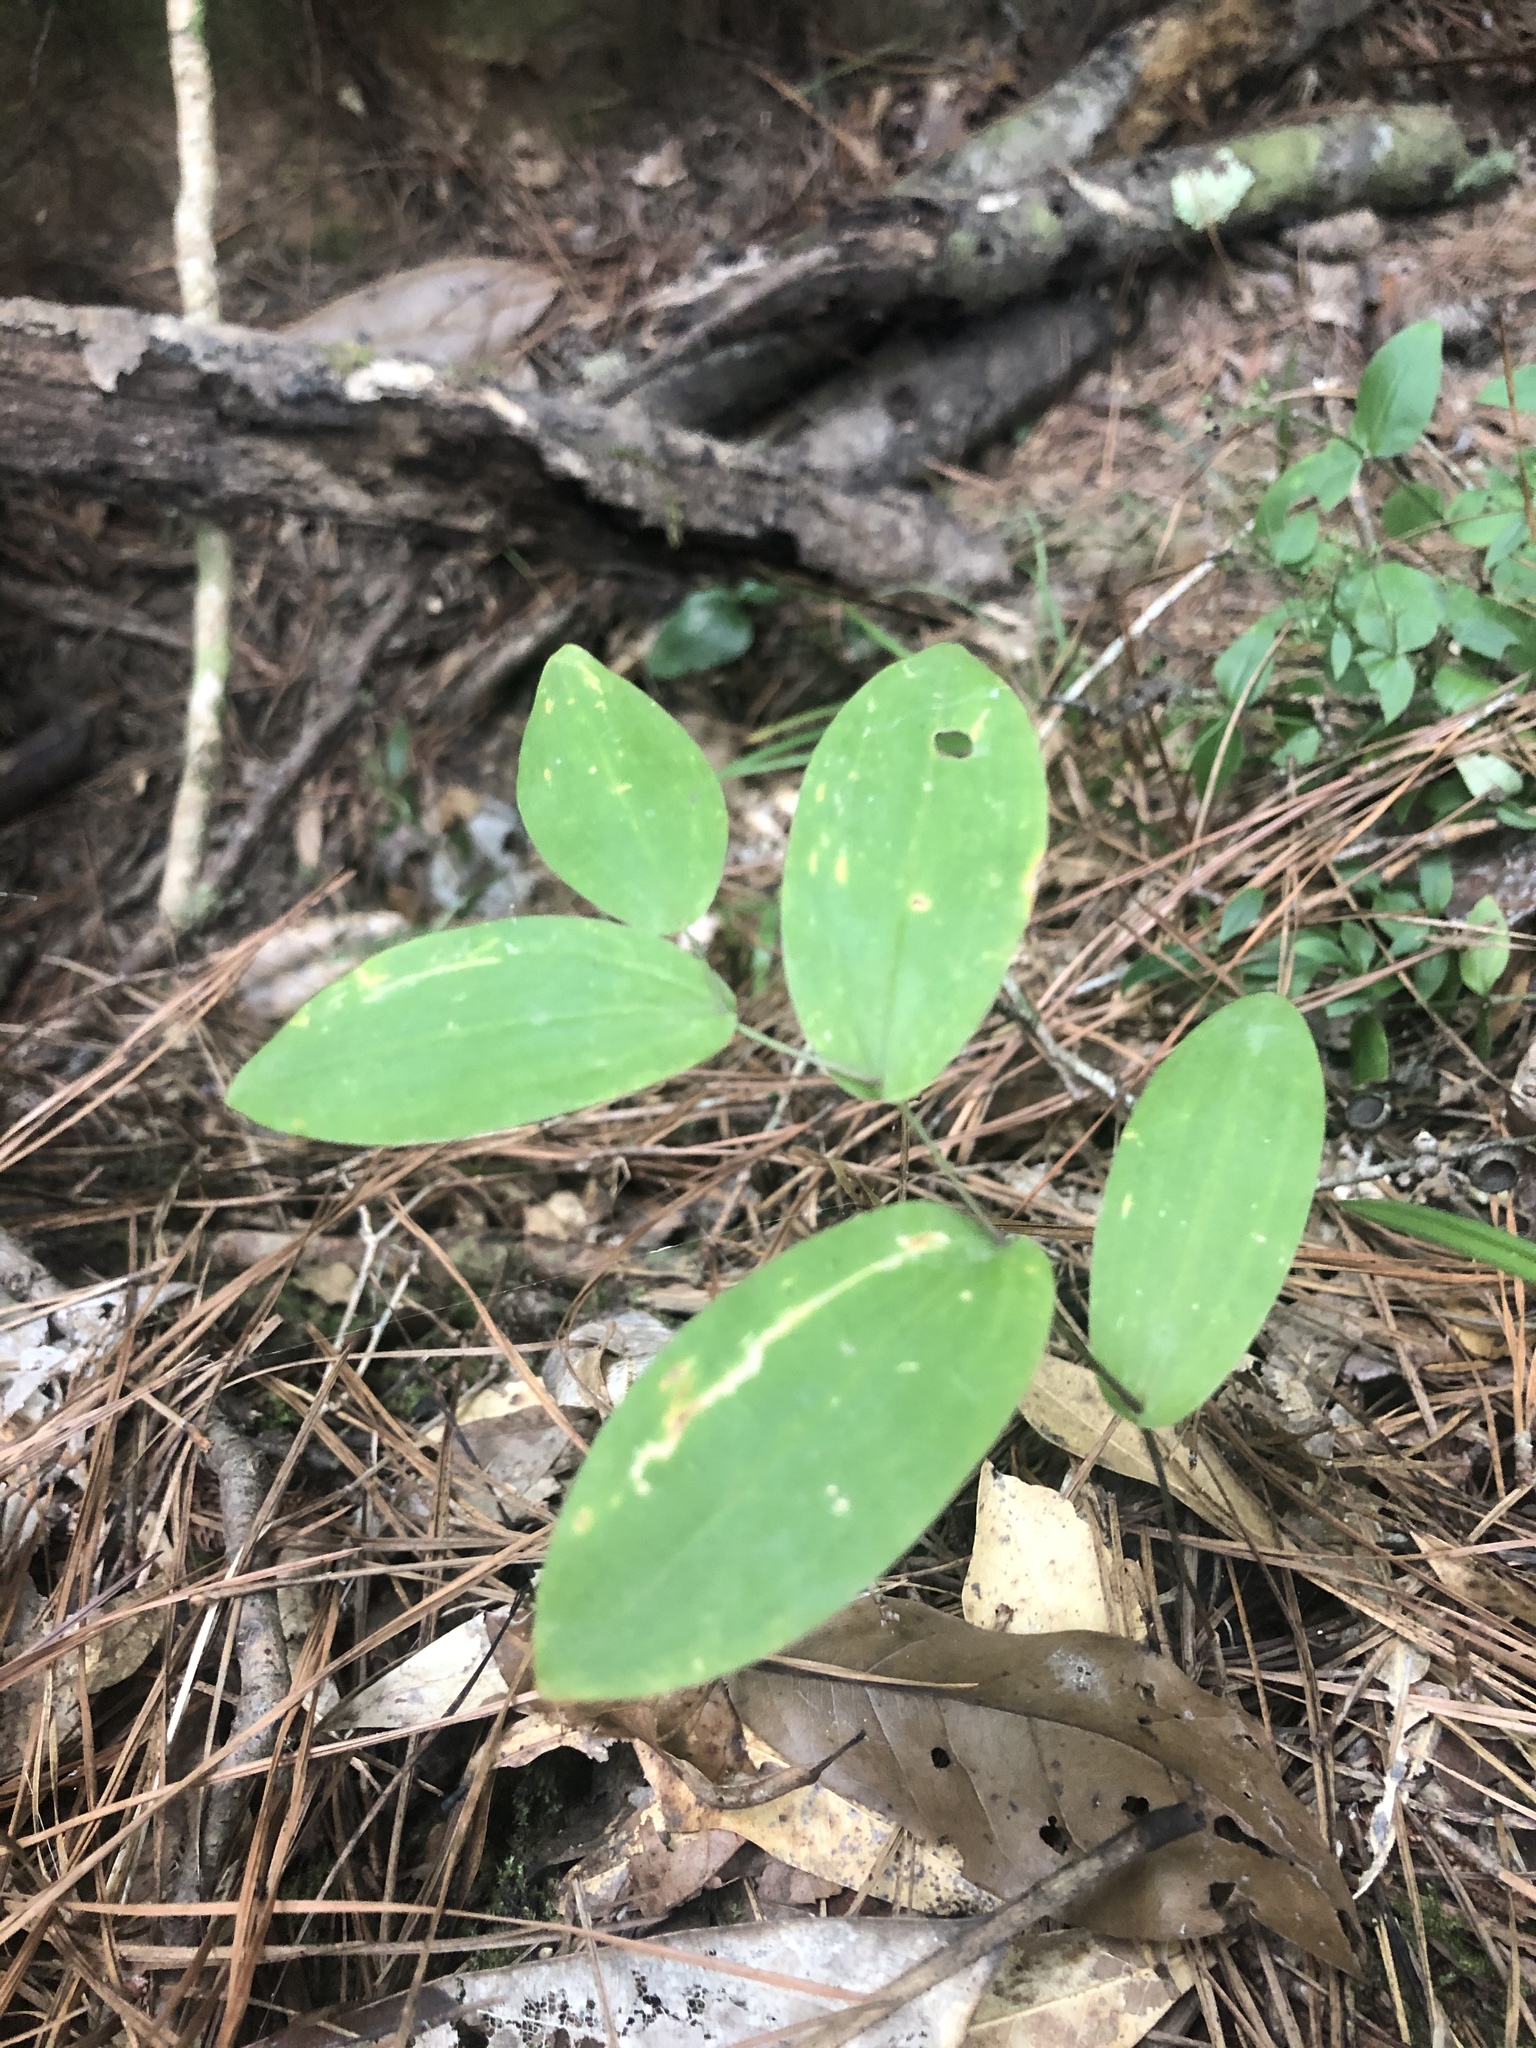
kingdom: Plantae
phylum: Tracheophyta
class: Liliopsida
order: Liliales
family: Colchicaceae
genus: Uvularia
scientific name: Uvularia perfoliata
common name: Perfoliate bellwort
